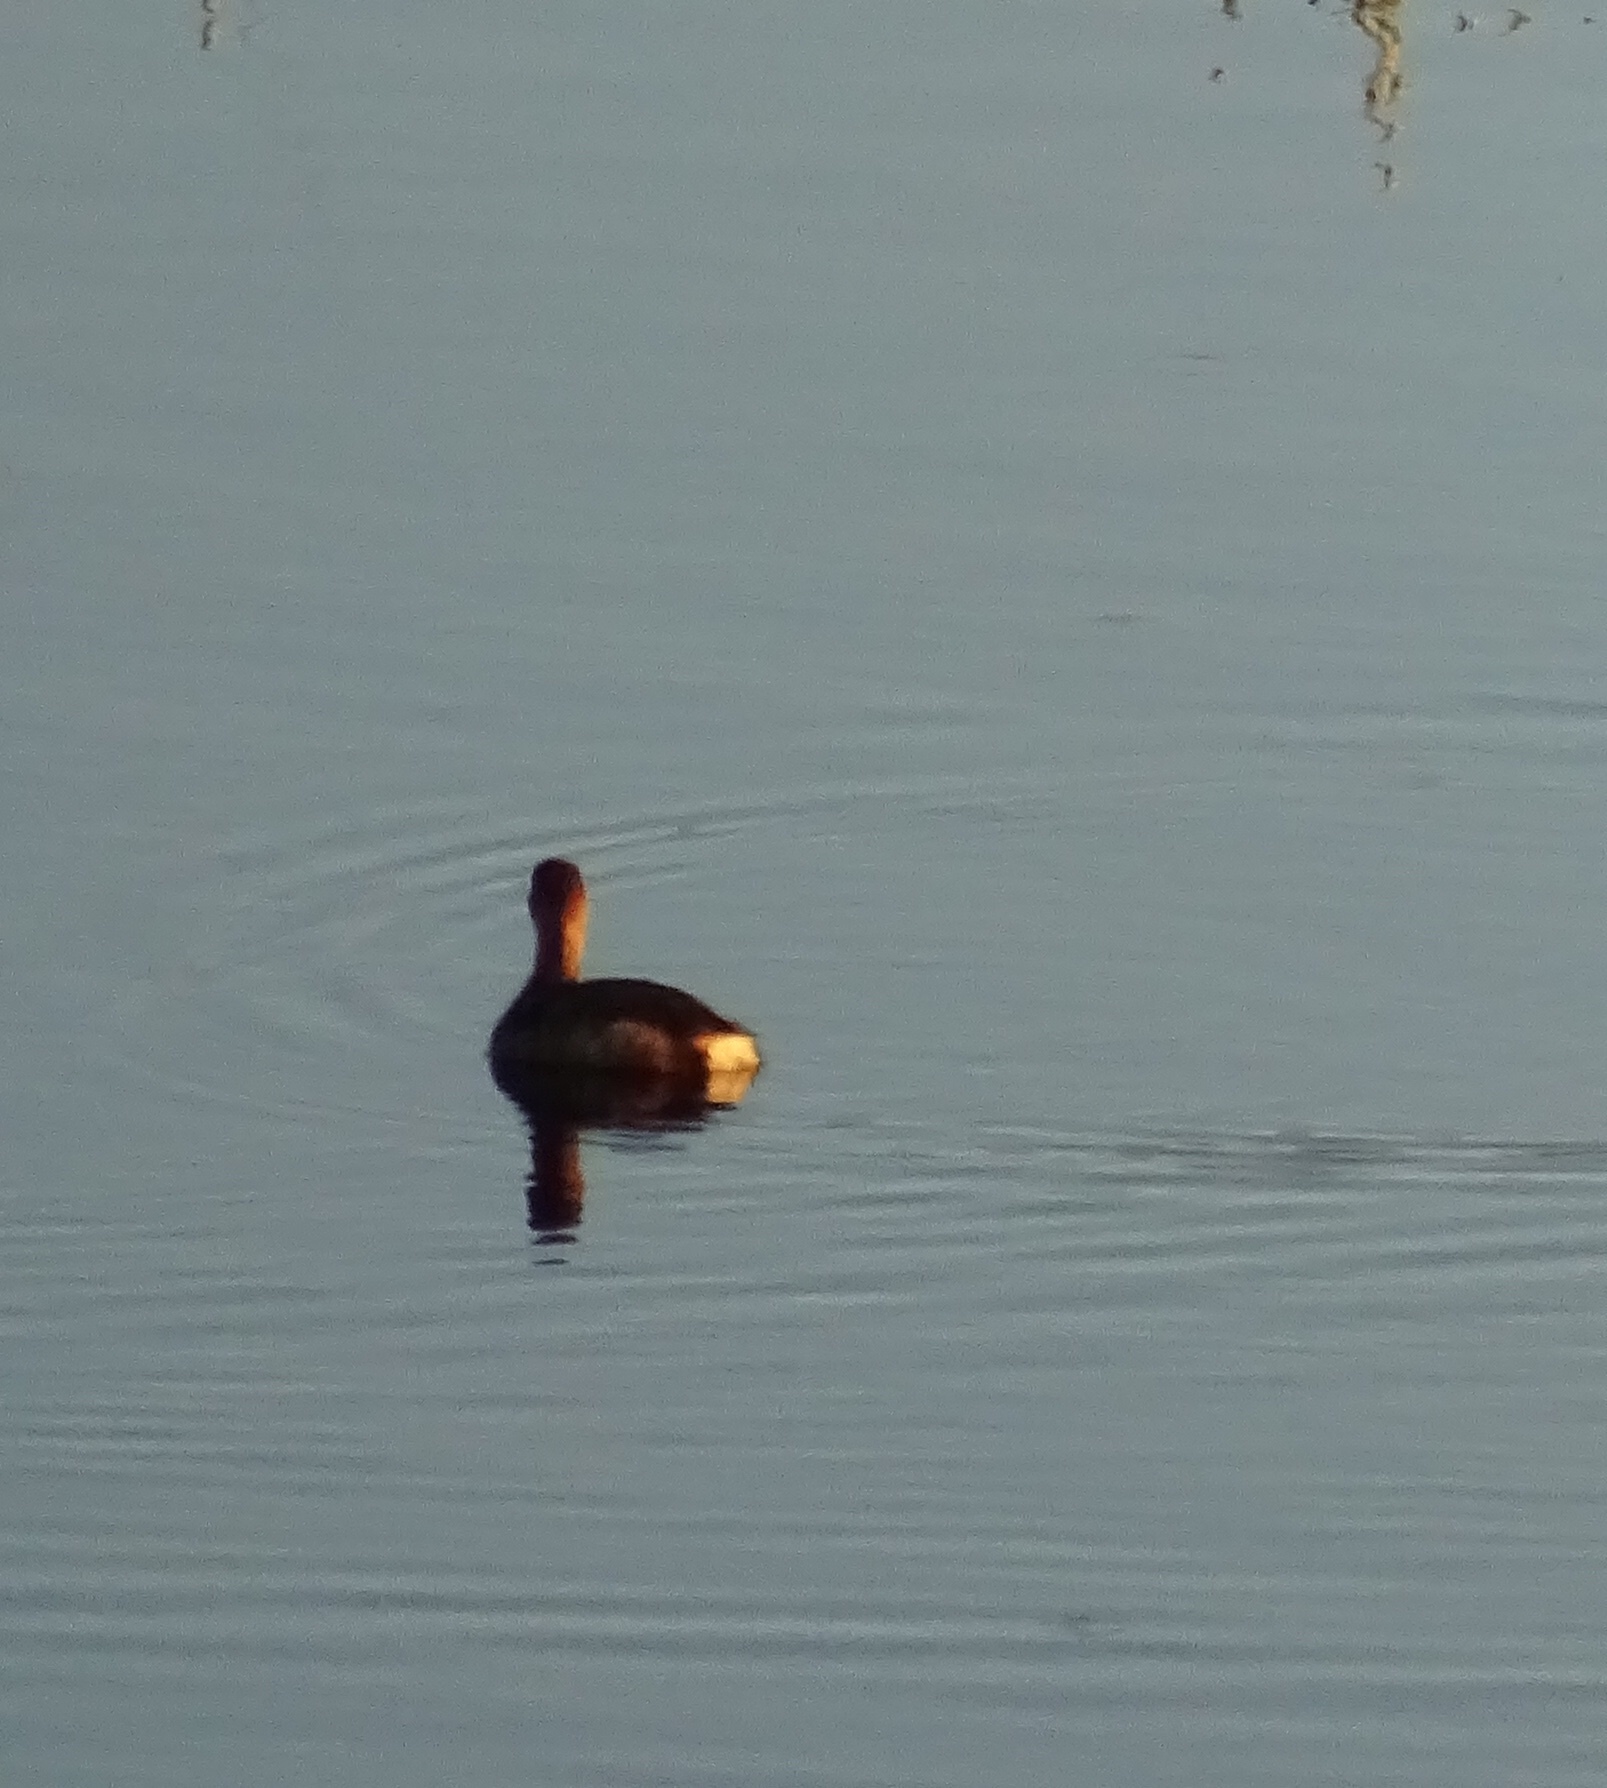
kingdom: Animalia
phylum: Chordata
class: Aves
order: Podicipediformes
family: Podicipedidae
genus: Podilymbus
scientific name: Podilymbus podiceps
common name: Pied-billed grebe
